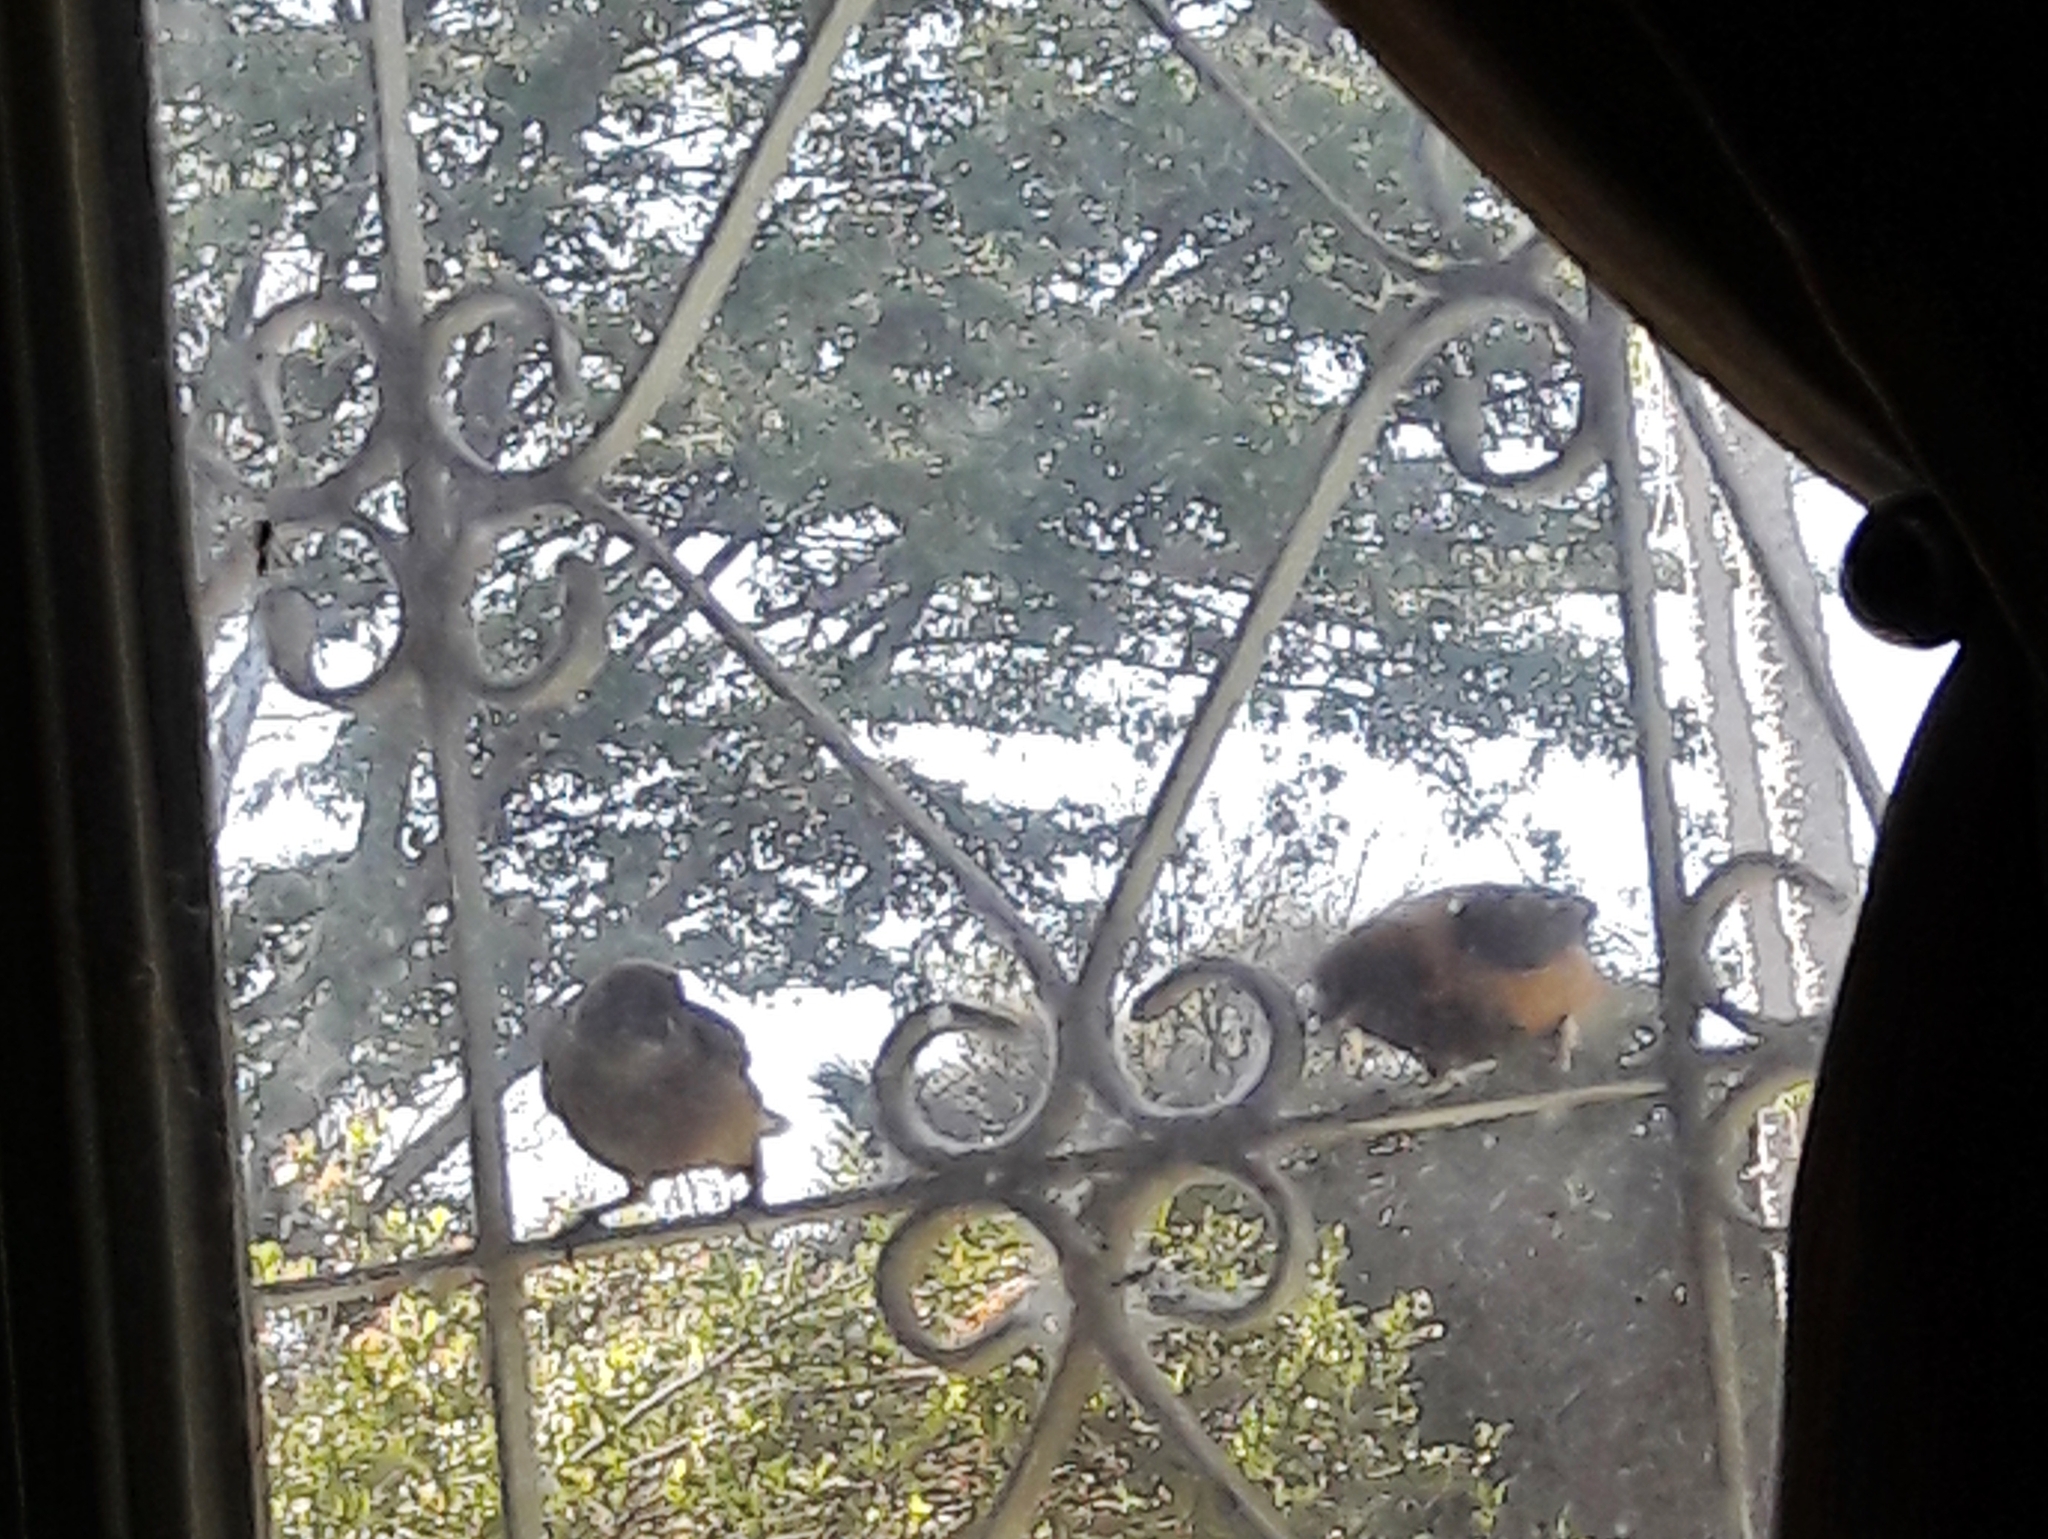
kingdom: Animalia
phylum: Chordata
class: Aves
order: Passeriformes
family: Thraupidae
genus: Stilpnia
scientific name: Stilpnia cayana
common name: Burnished-buff tanager
